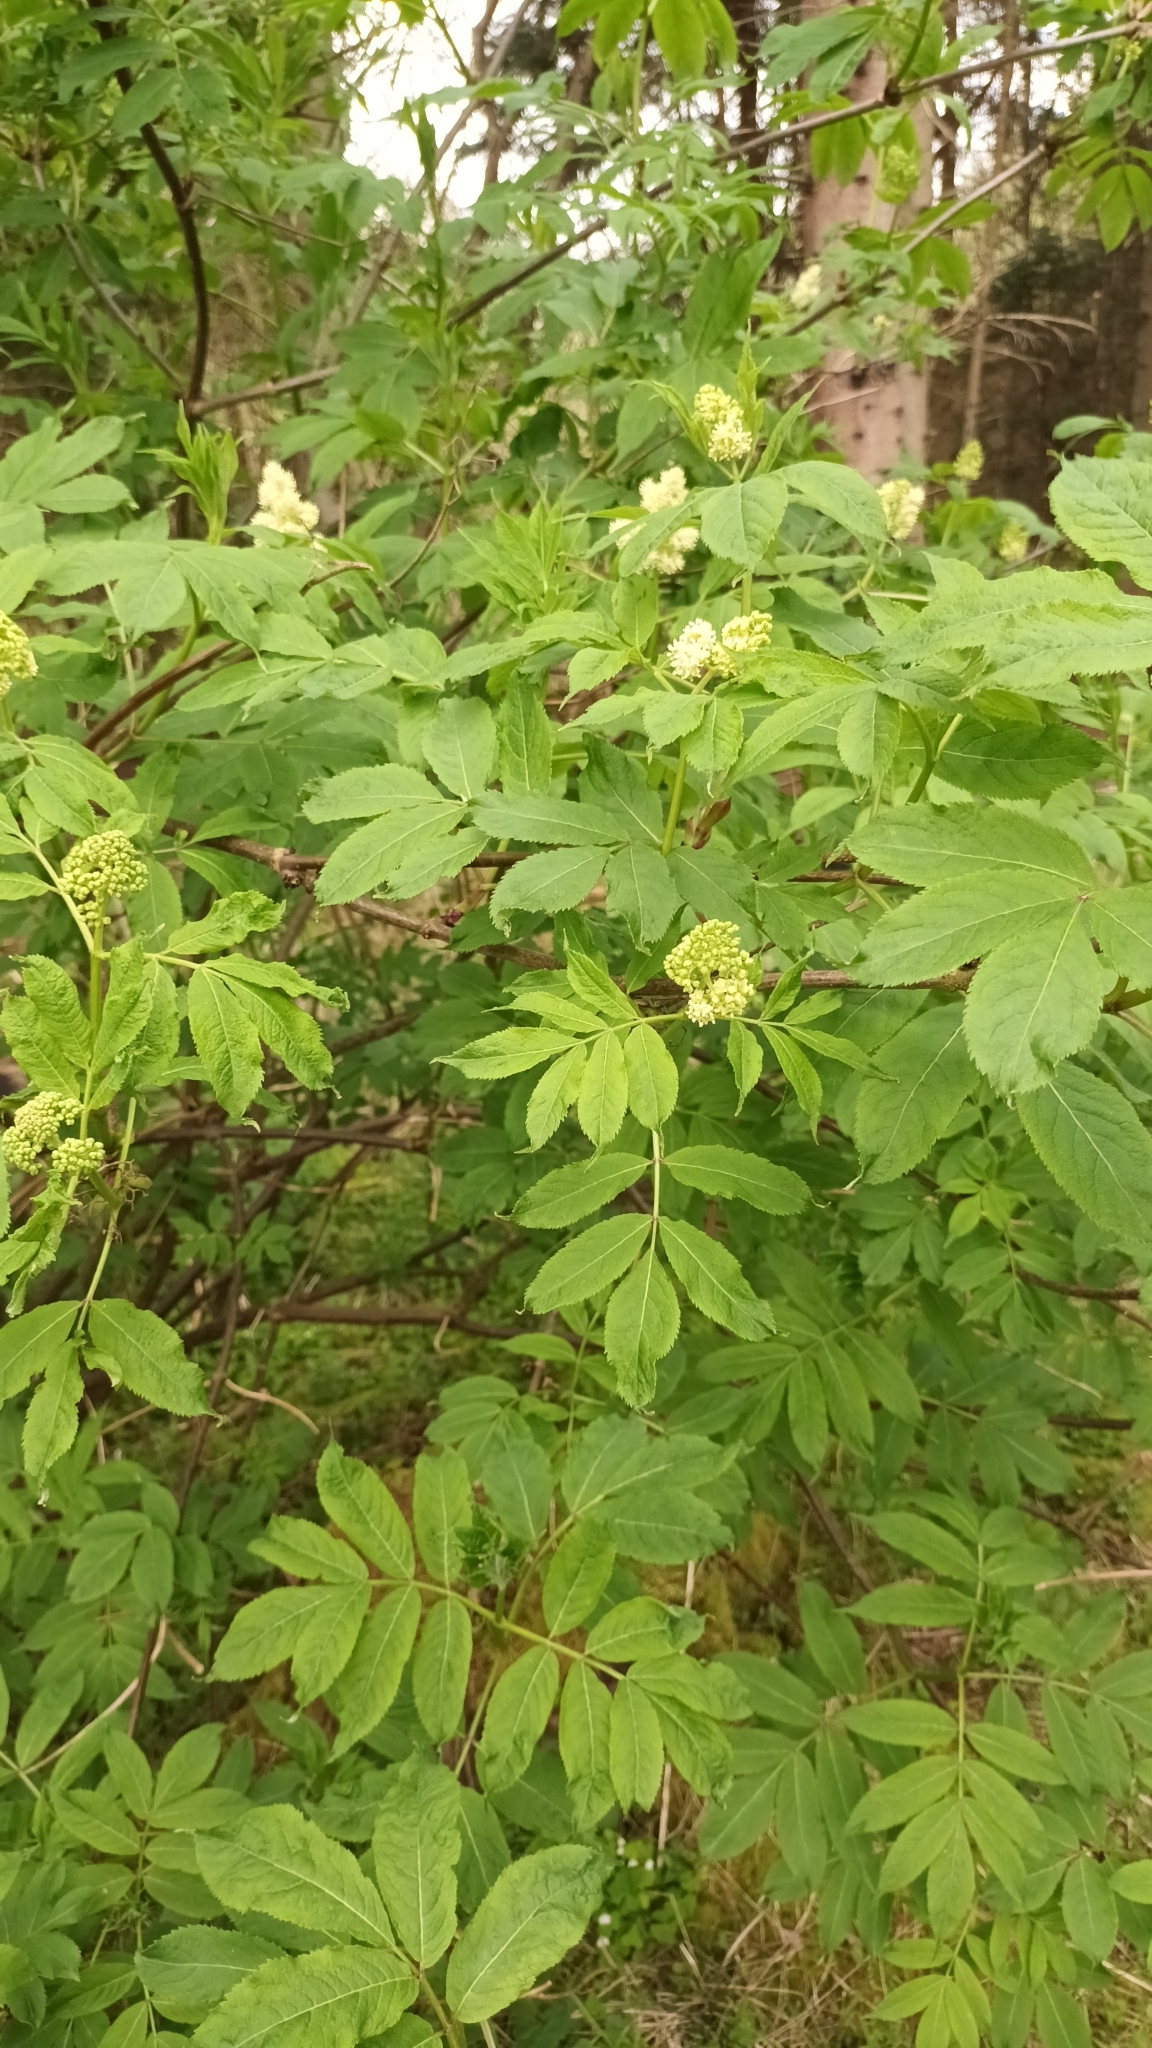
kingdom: Plantae
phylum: Tracheophyta
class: Magnoliopsida
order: Dipsacales
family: Viburnaceae
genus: Sambucus
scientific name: Sambucus racemosa
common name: Red-berried elder
